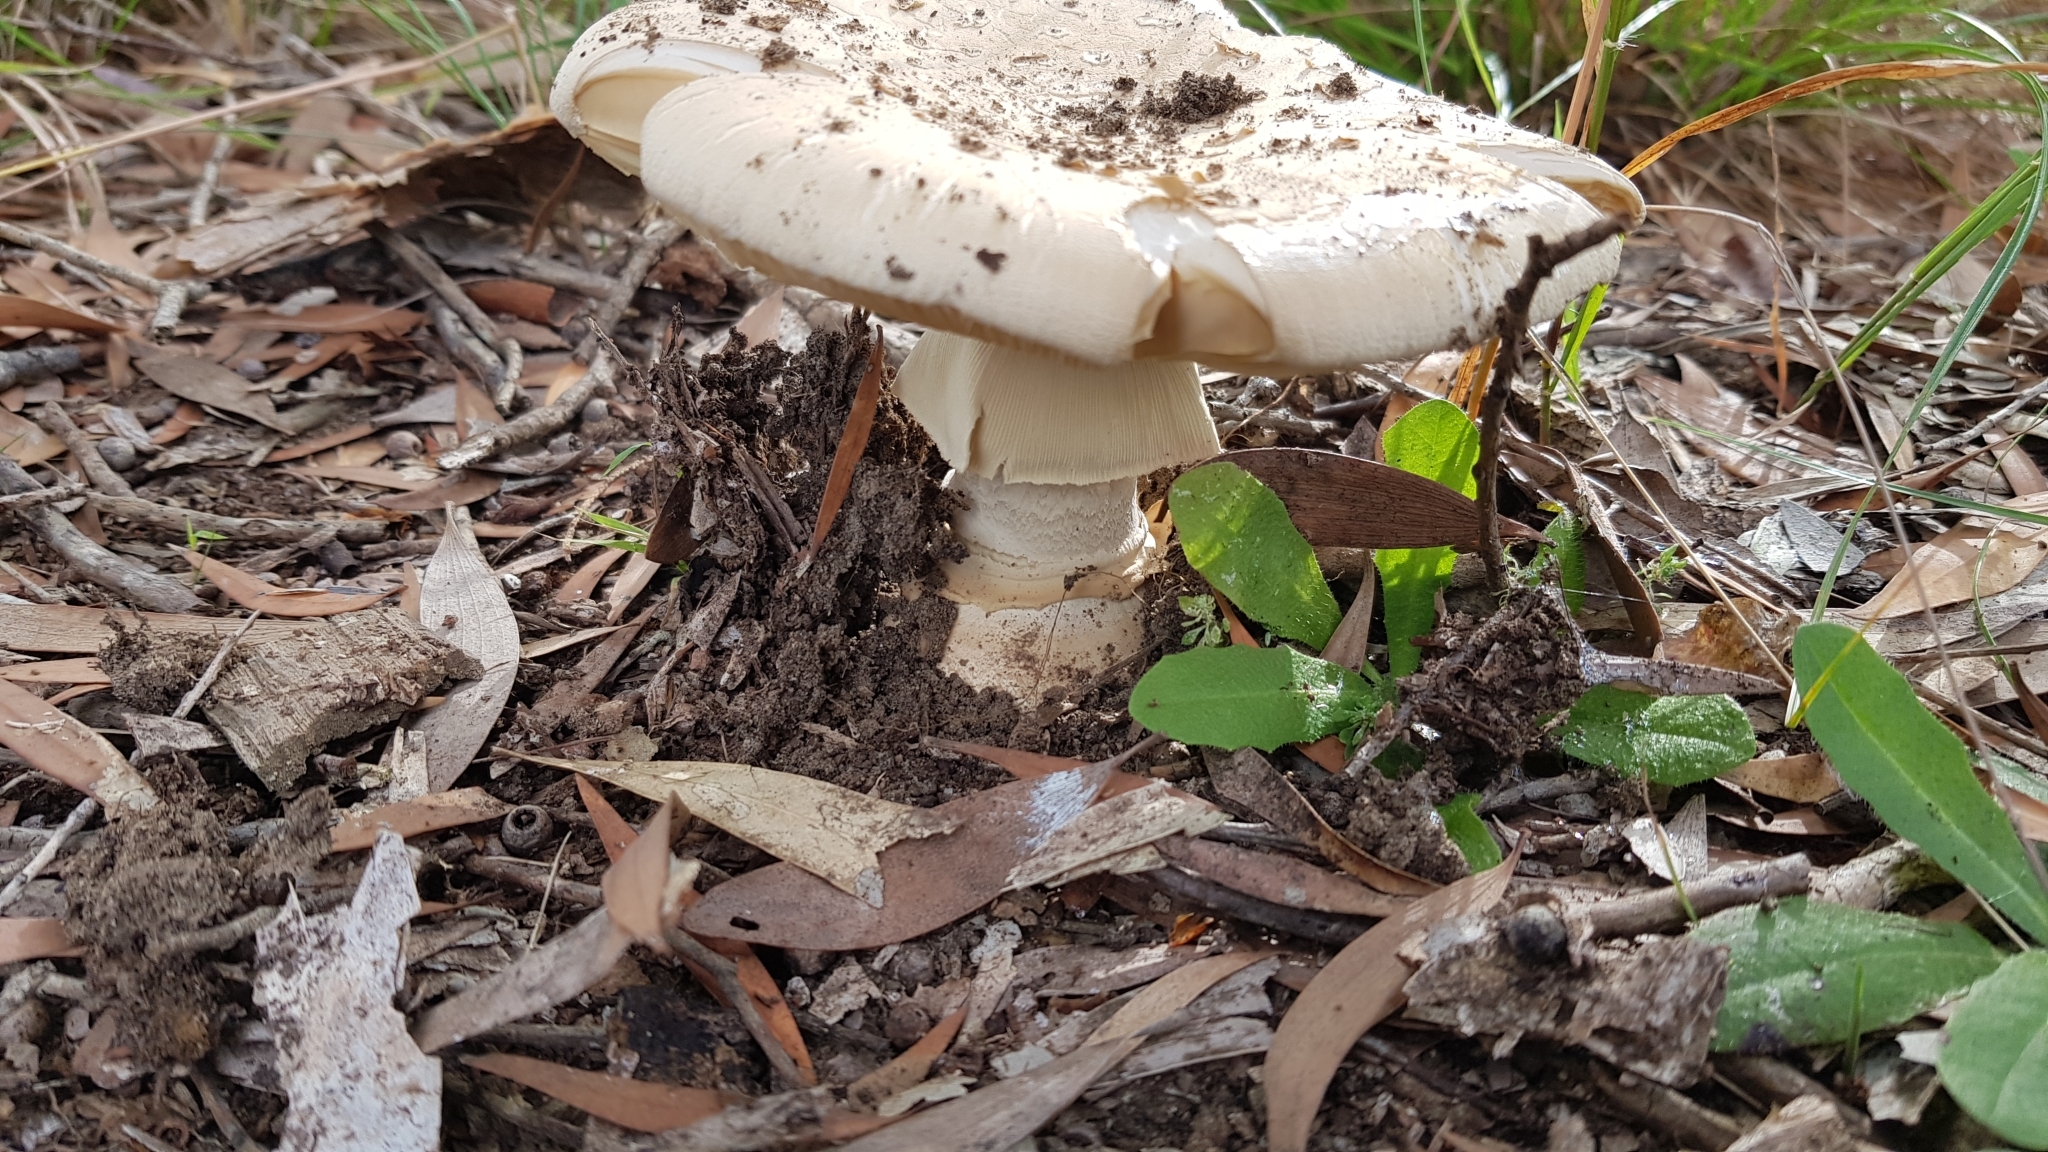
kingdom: Fungi
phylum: Basidiomycota
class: Agaricomycetes
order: Agaricales
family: Amanitaceae
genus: Amanita
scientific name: Amanita ochrophylloides
